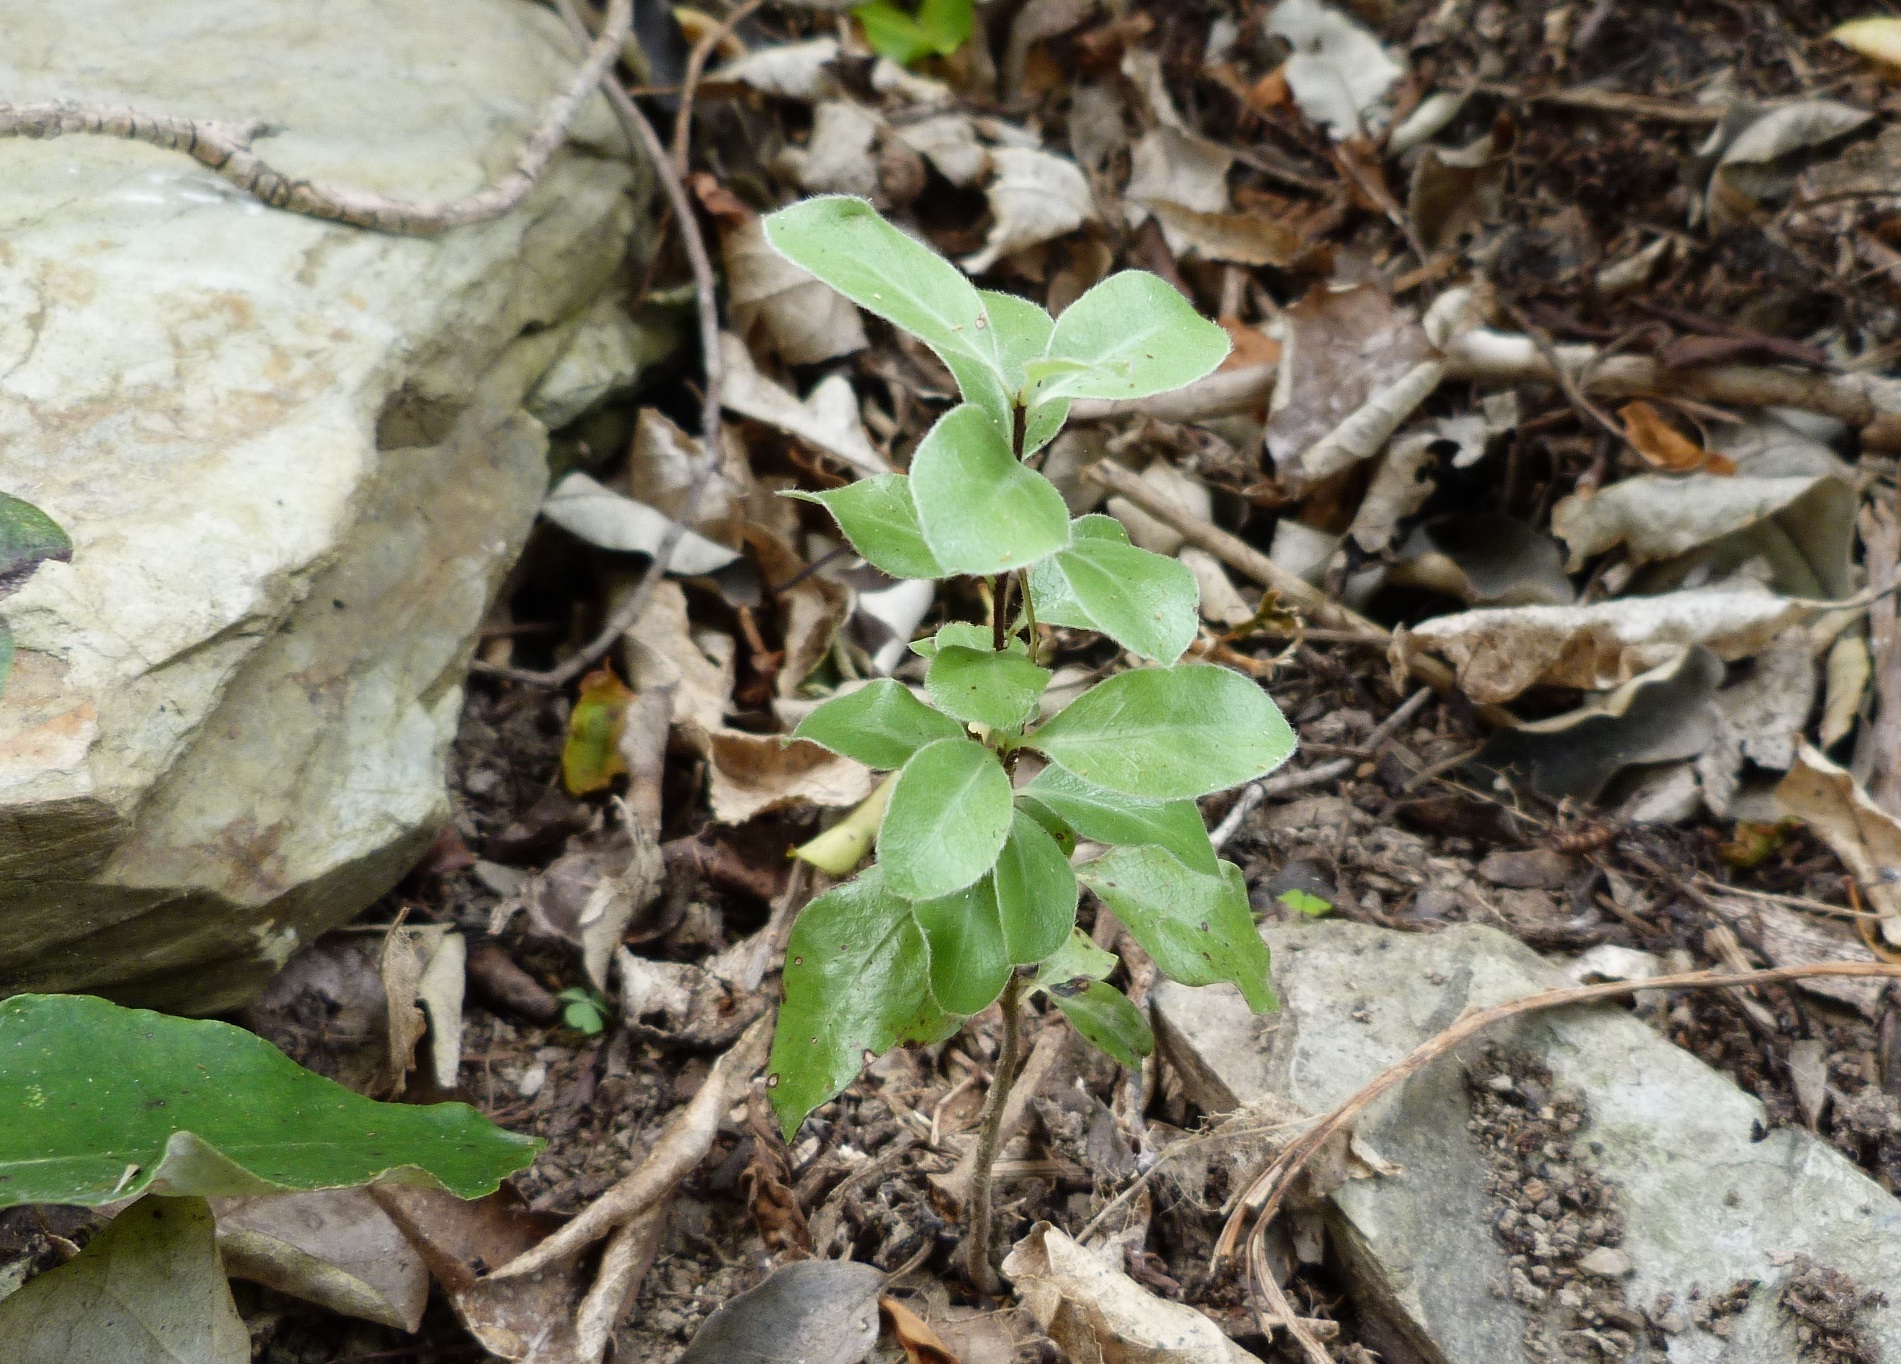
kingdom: Plantae
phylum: Tracheophyta
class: Magnoliopsida
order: Apiales
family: Pittosporaceae
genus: Pittosporum
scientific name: Pittosporum tenuifolium
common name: Kohuhu
